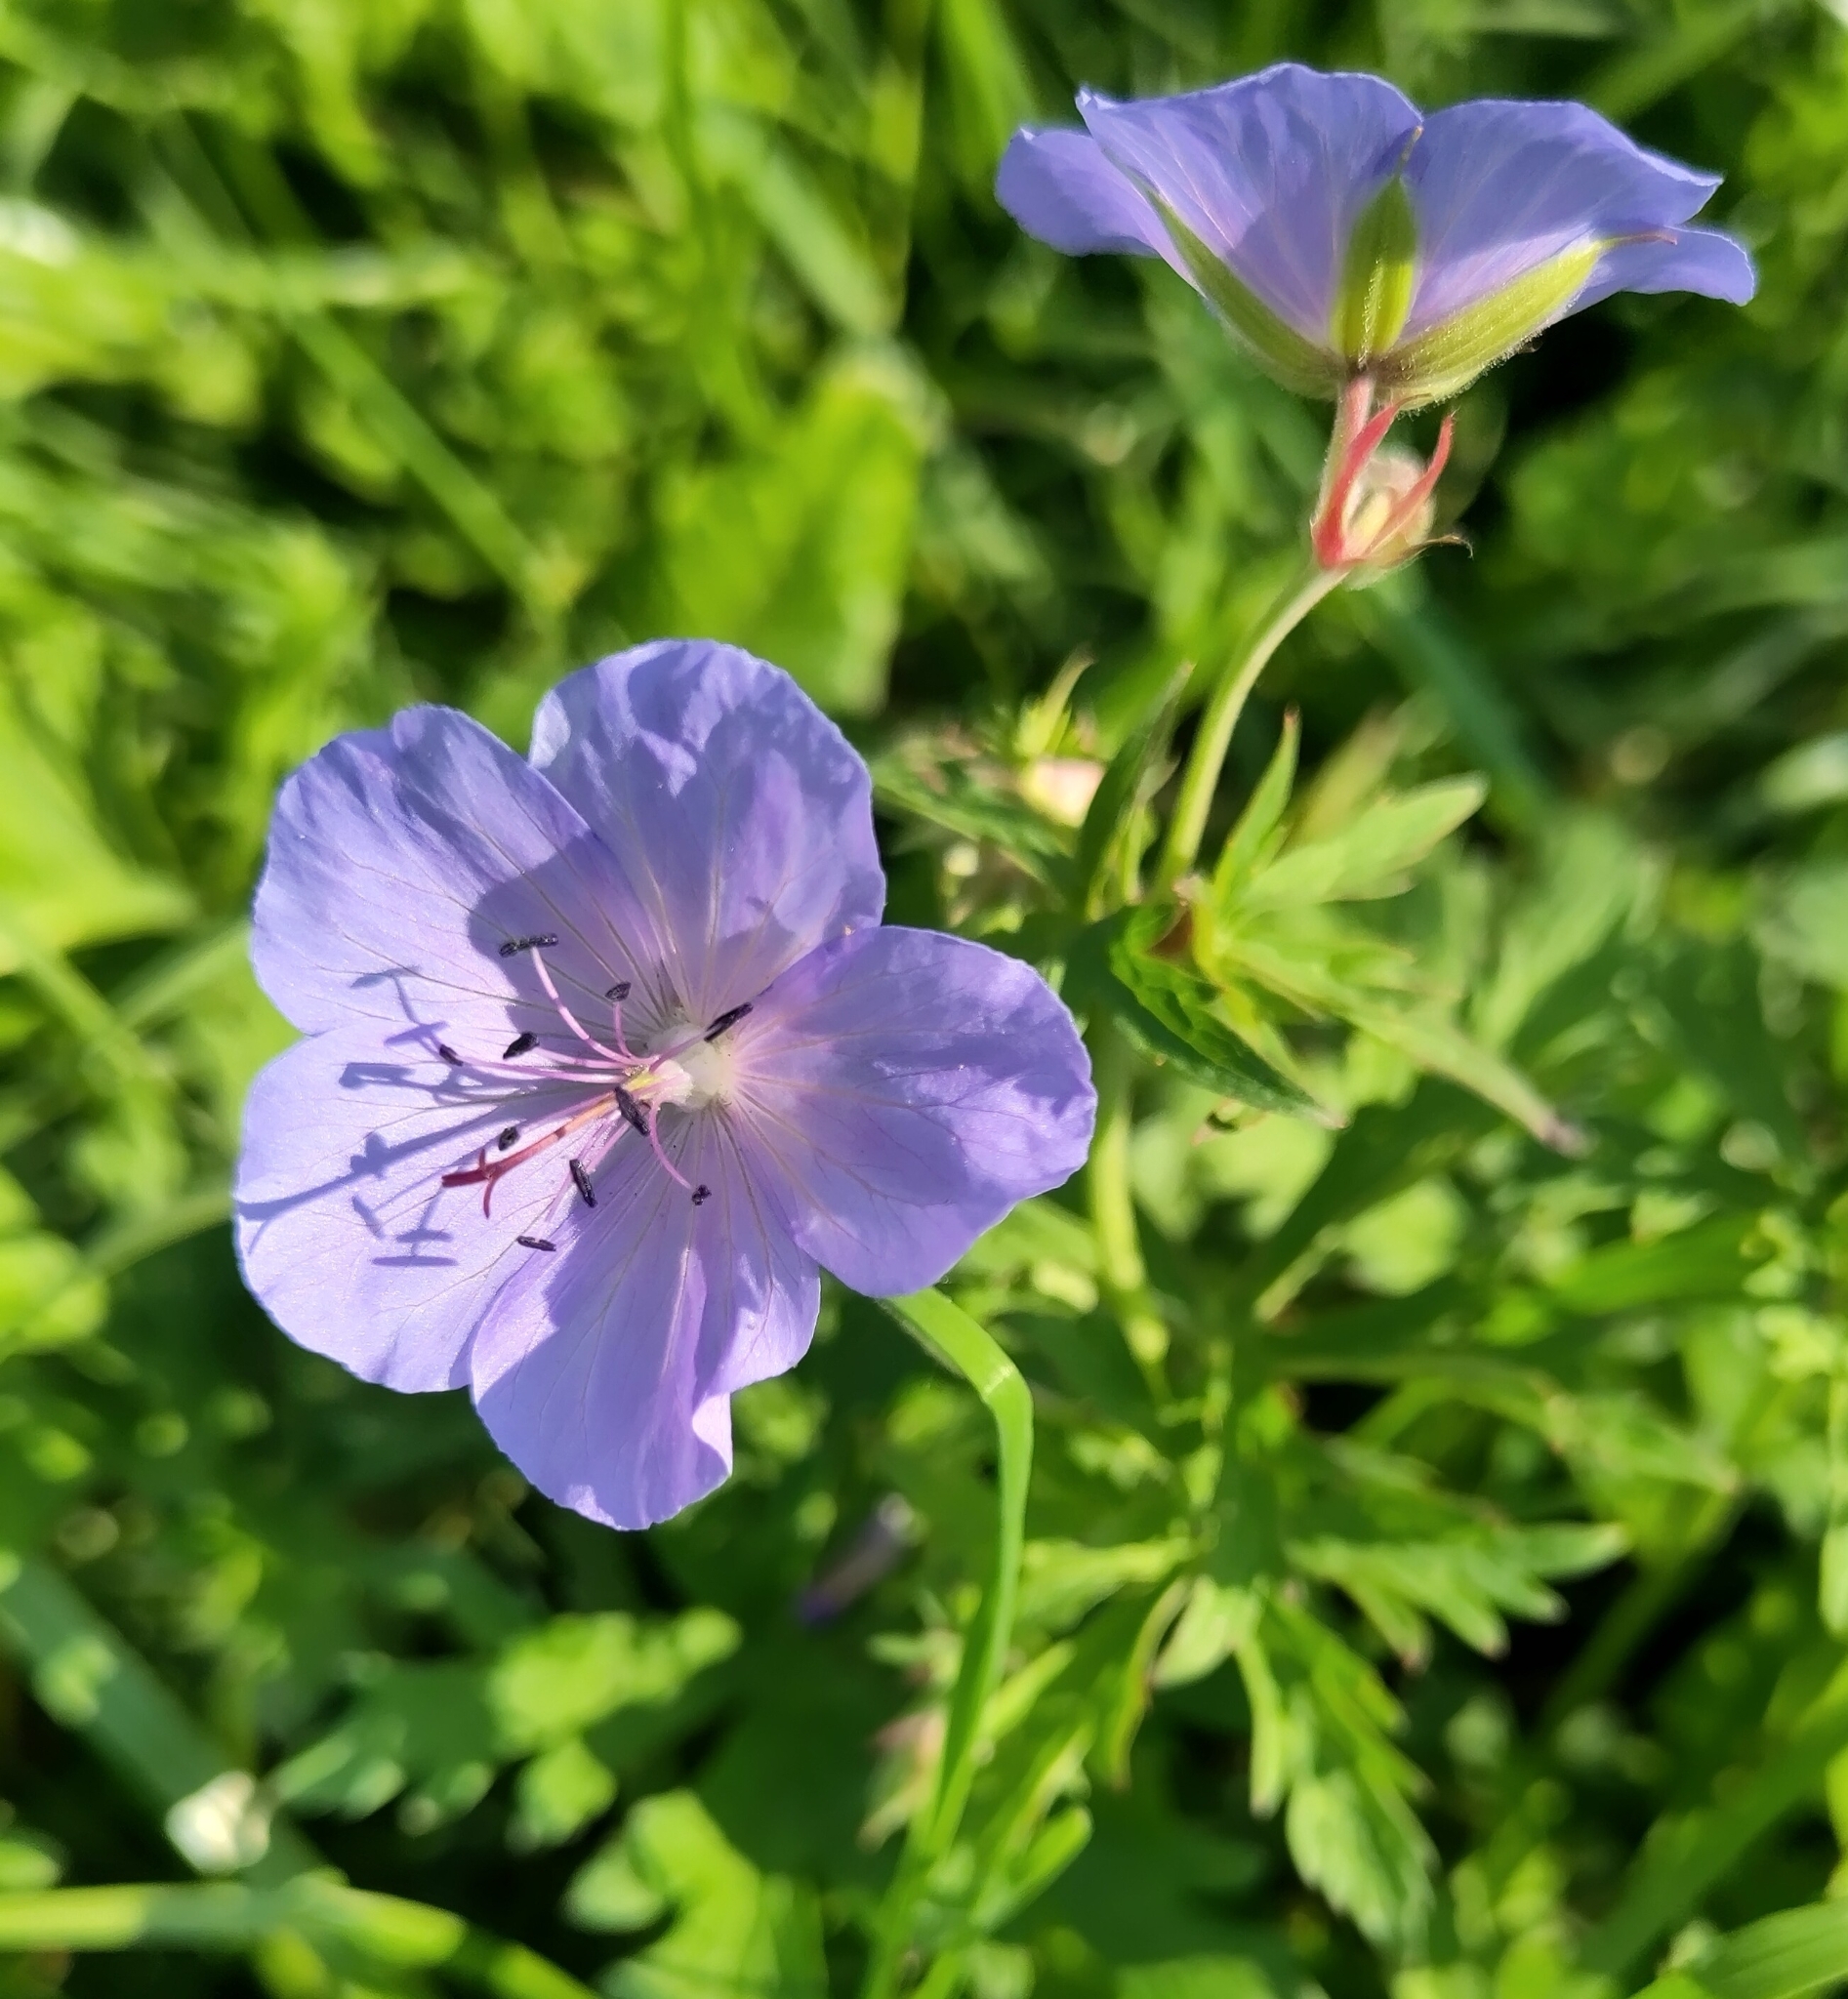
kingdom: Plantae
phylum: Tracheophyta
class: Magnoliopsida
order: Geraniales
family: Geraniaceae
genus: Geranium
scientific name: Geranium pratense
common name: Meadow crane's-bill
